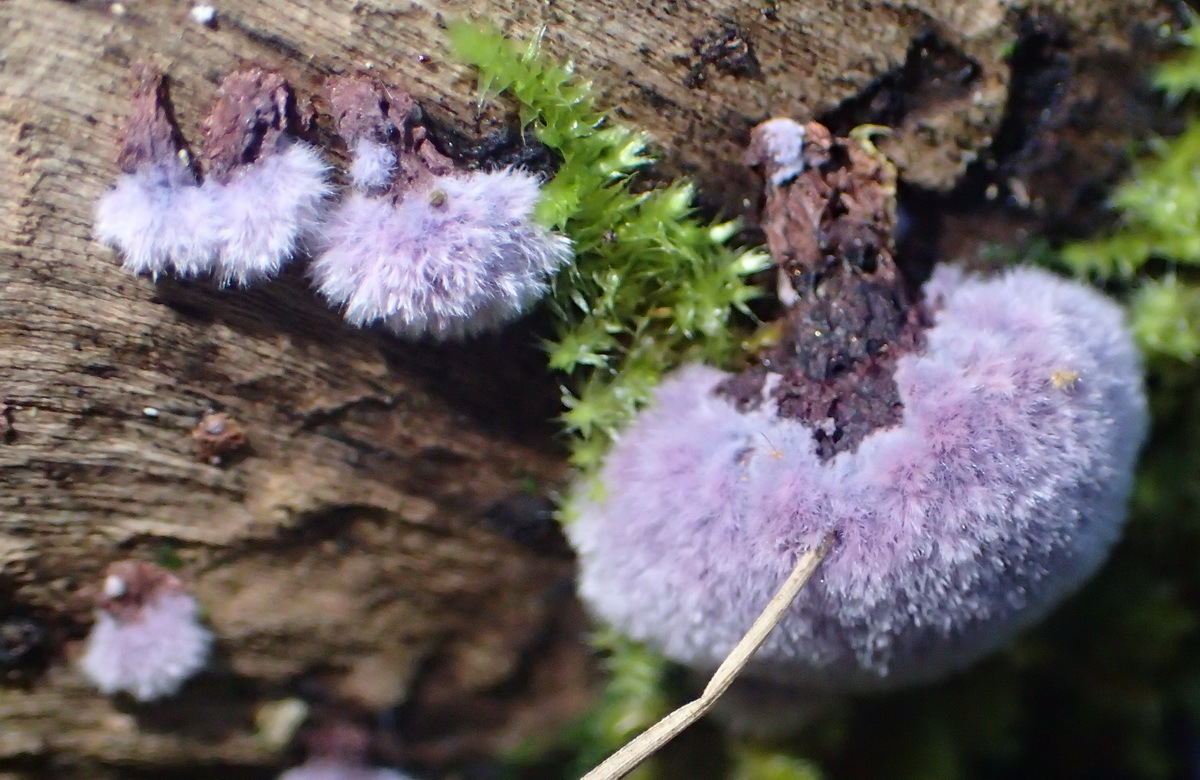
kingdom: Fungi
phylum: Basidiomycota
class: Agaricomycetes
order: Corticiales
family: Punctulariaceae
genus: Punctularia
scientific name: Punctularia atropurpurascens
